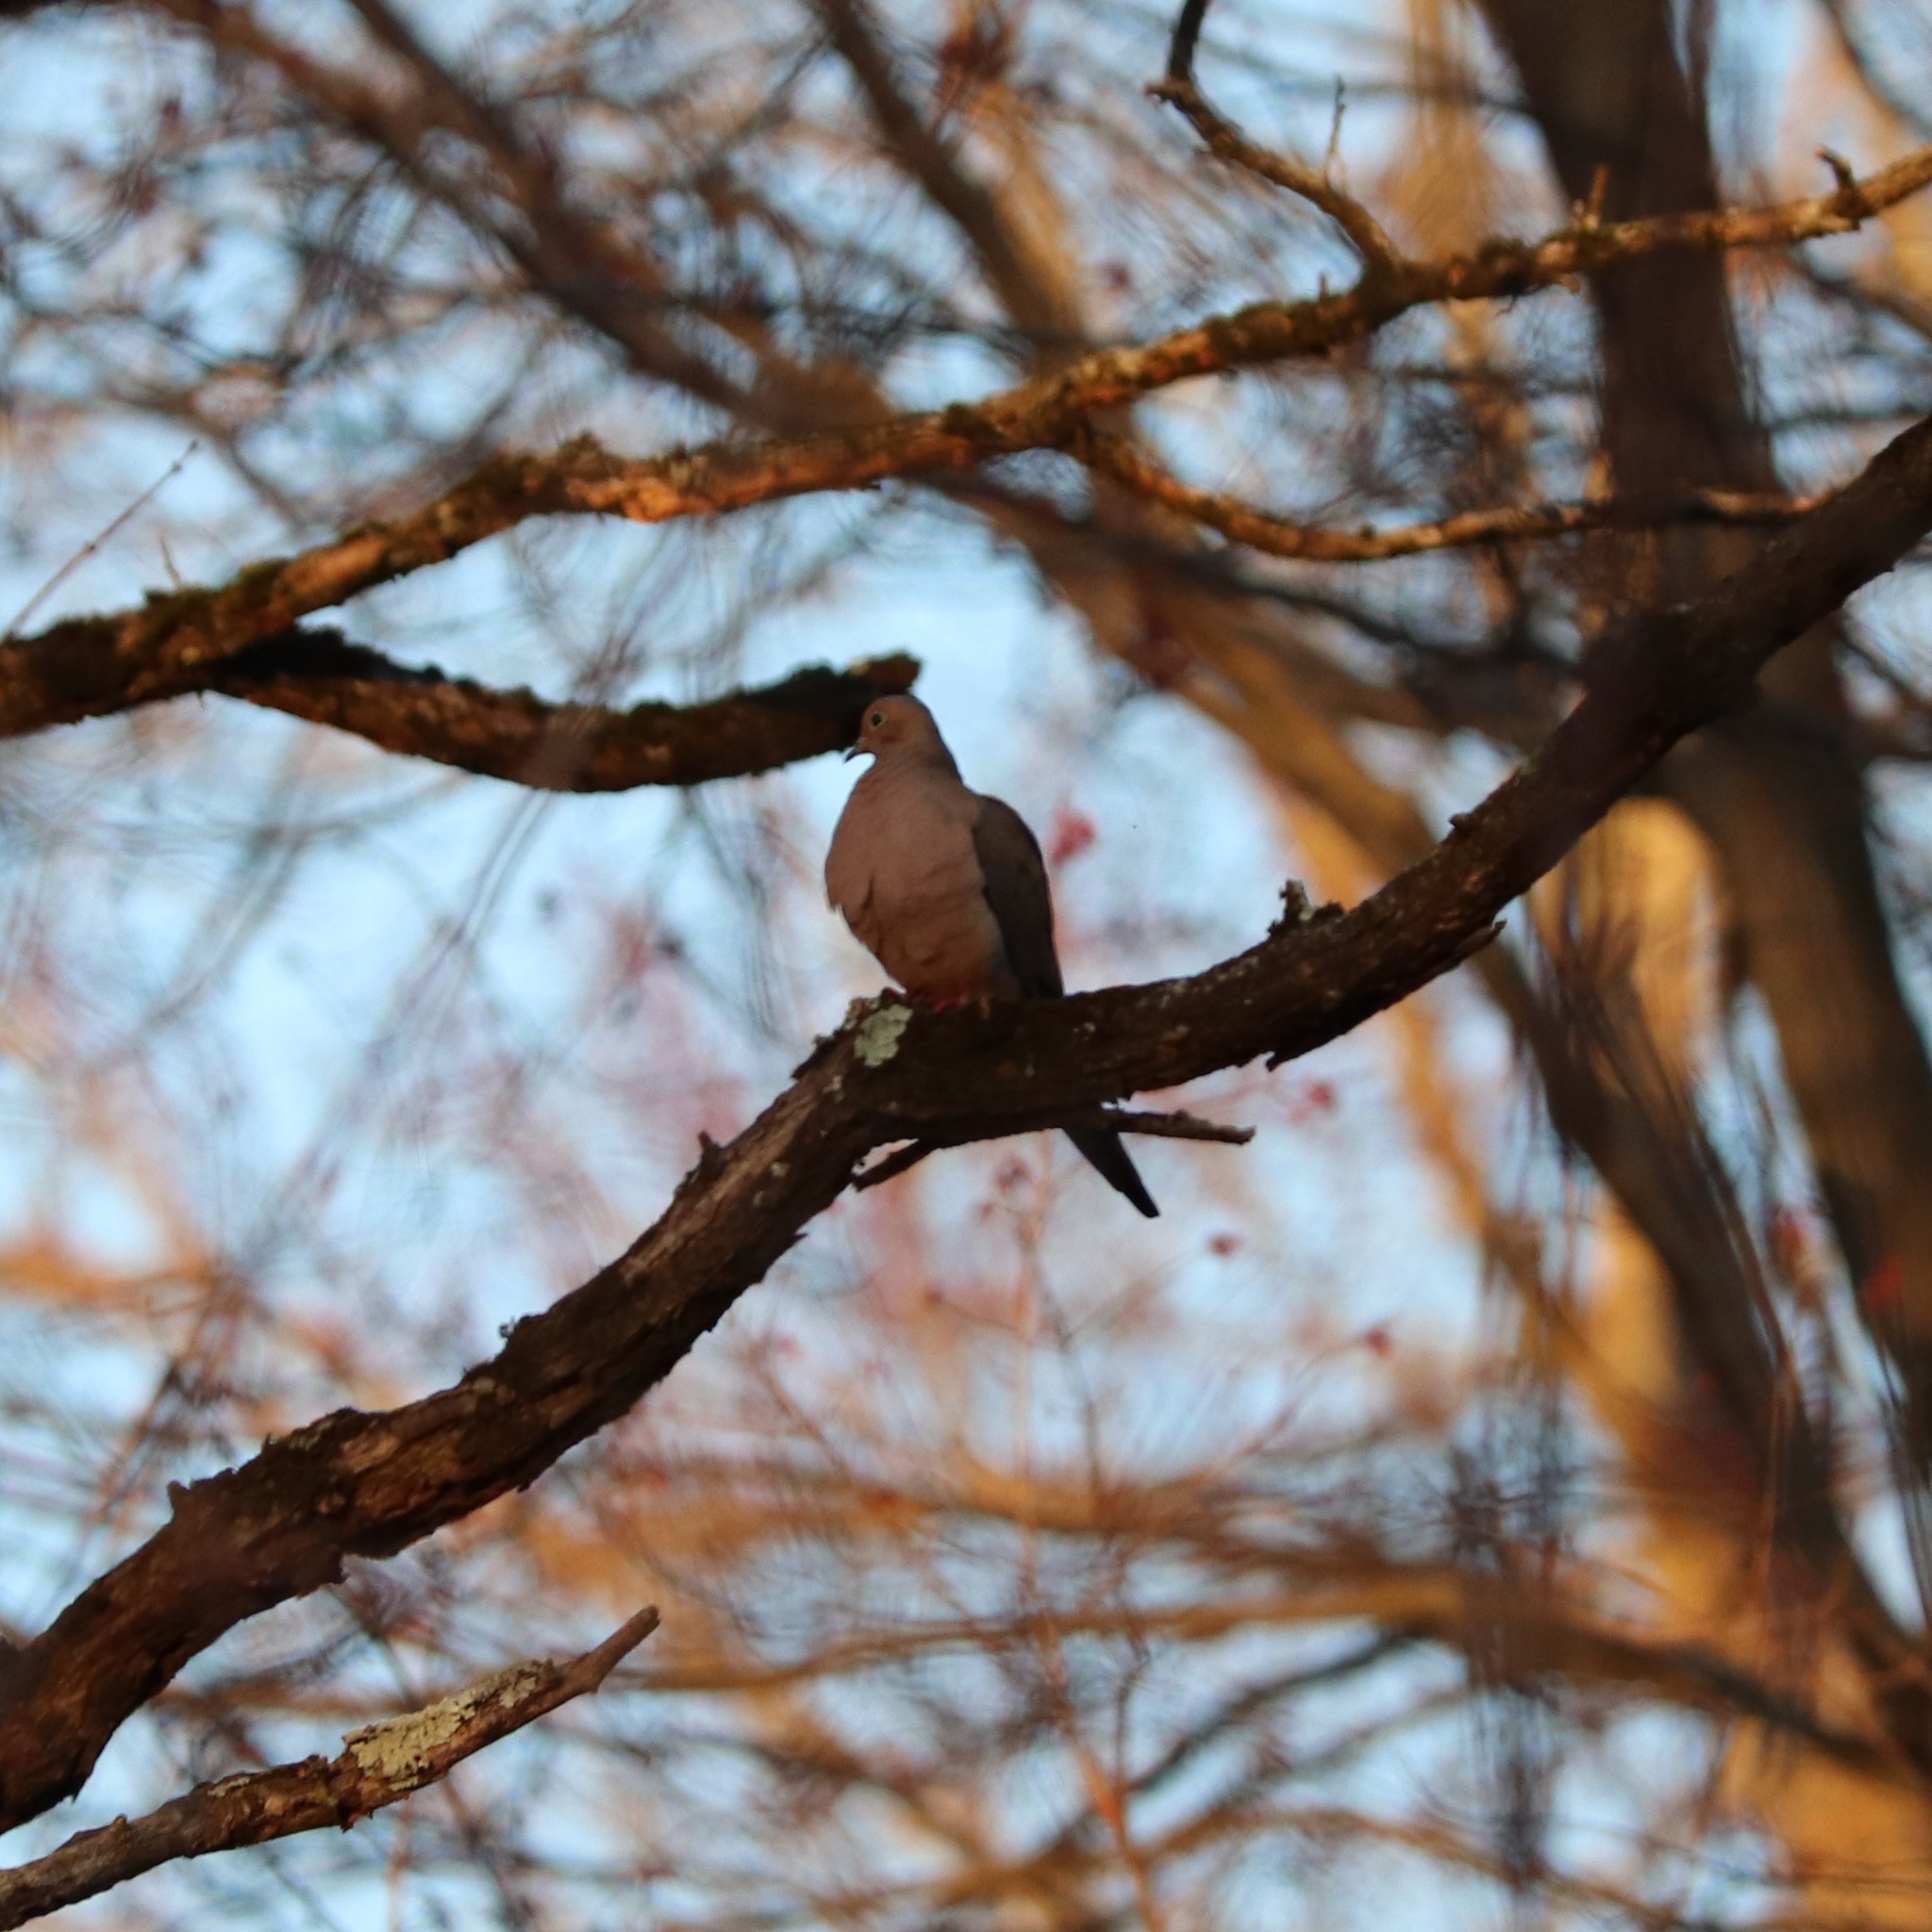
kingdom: Animalia
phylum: Chordata
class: Aves
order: Columbiformes
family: Columbidae
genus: Zenaida
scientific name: Zenaida macroura
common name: Mourning dove
